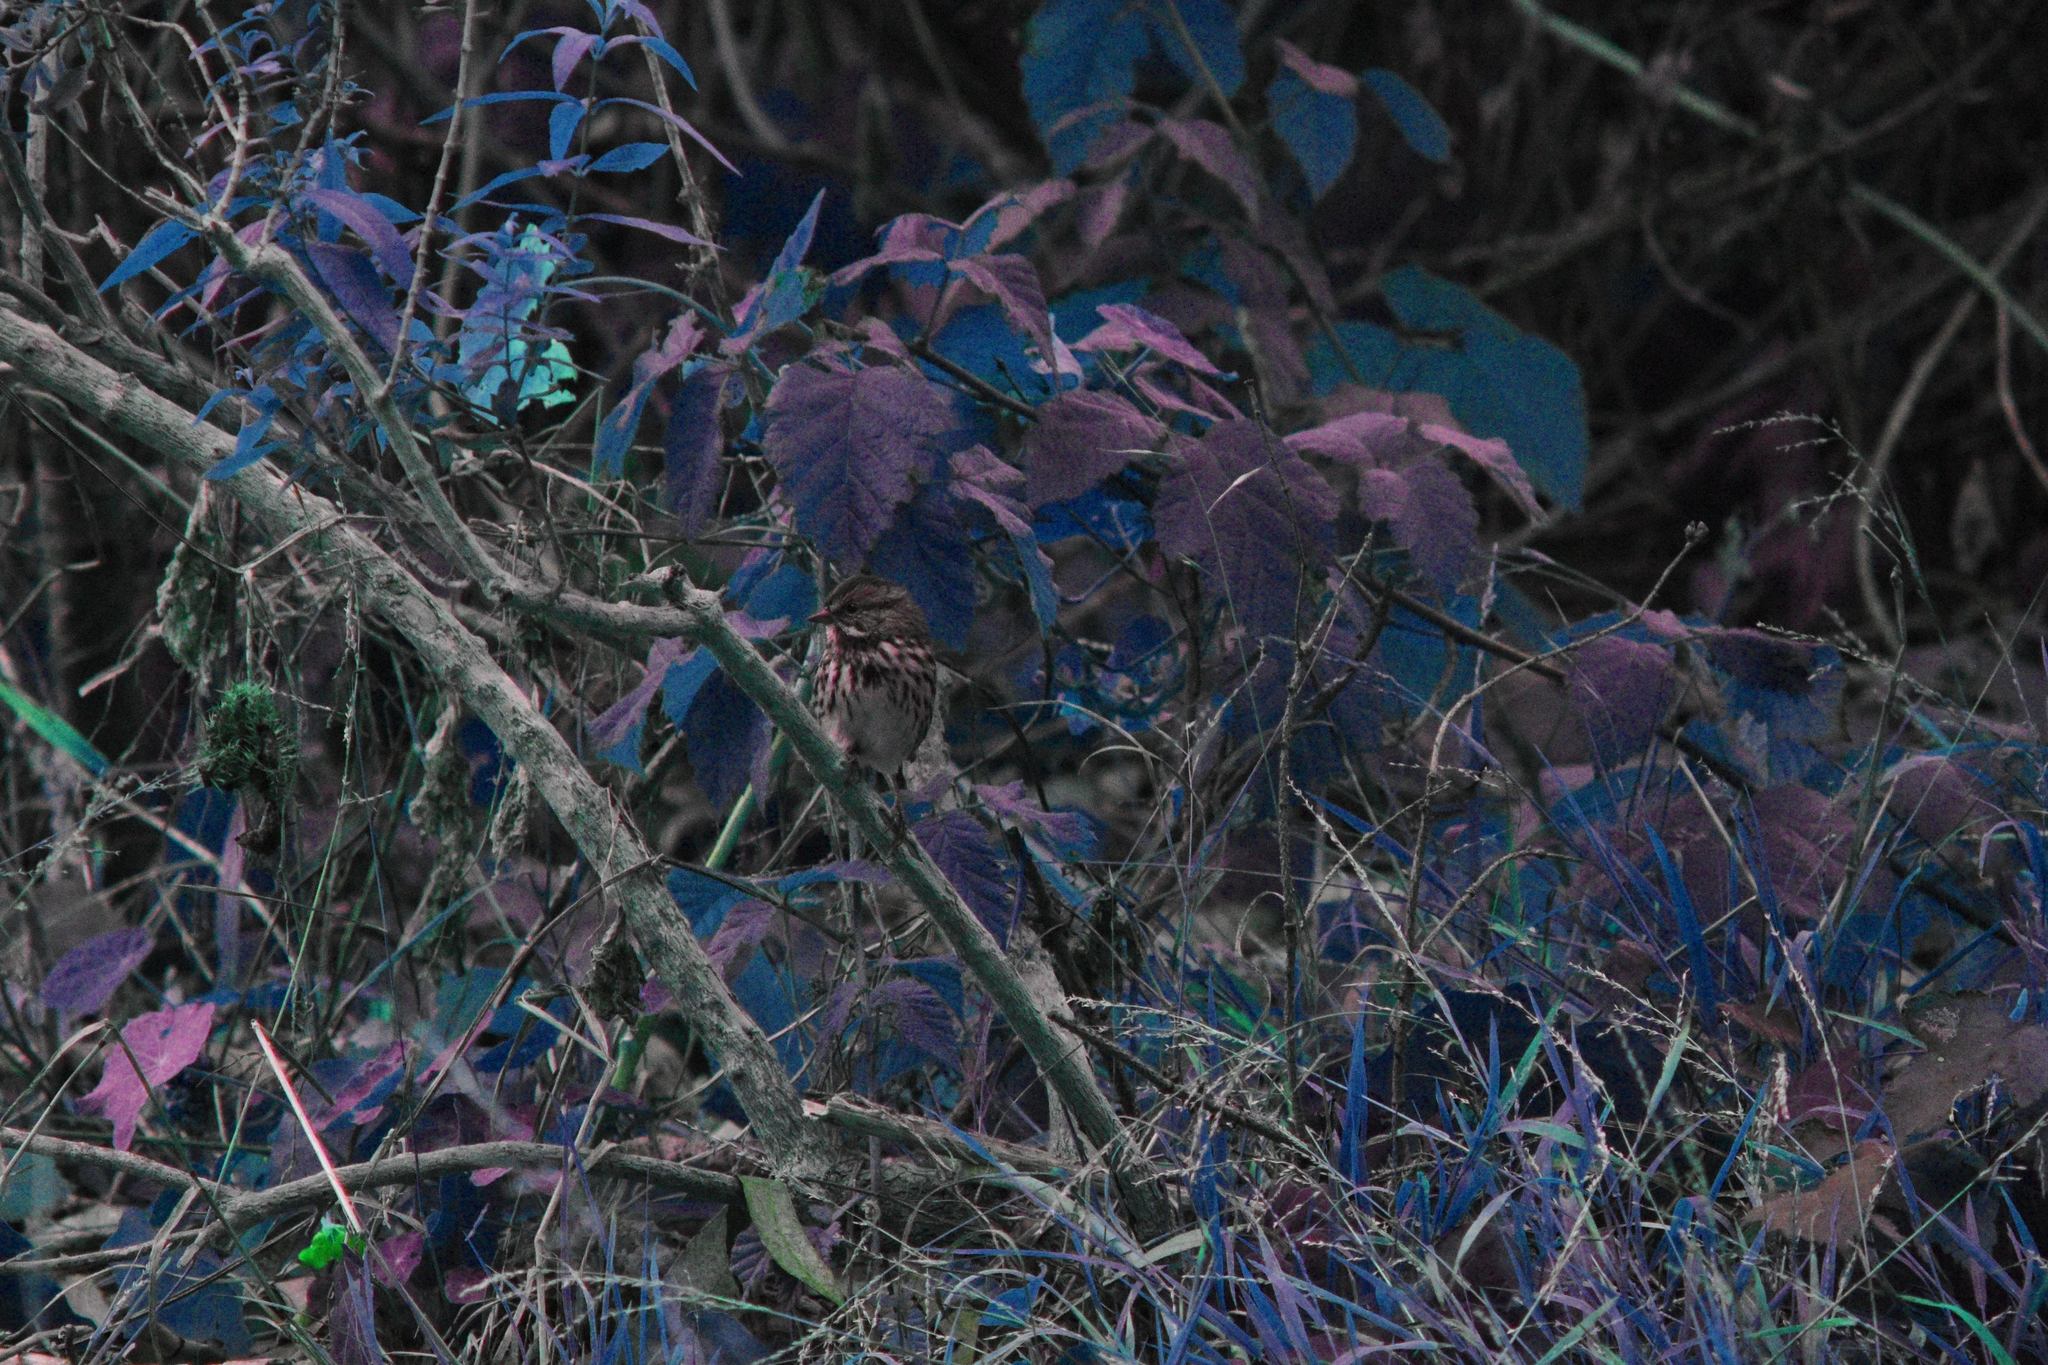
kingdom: Animalia
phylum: Chordata
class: Aves
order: Passeriformes
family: Passerellidae
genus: Melospiza
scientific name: Melospiza melodia
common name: Song sparrow
